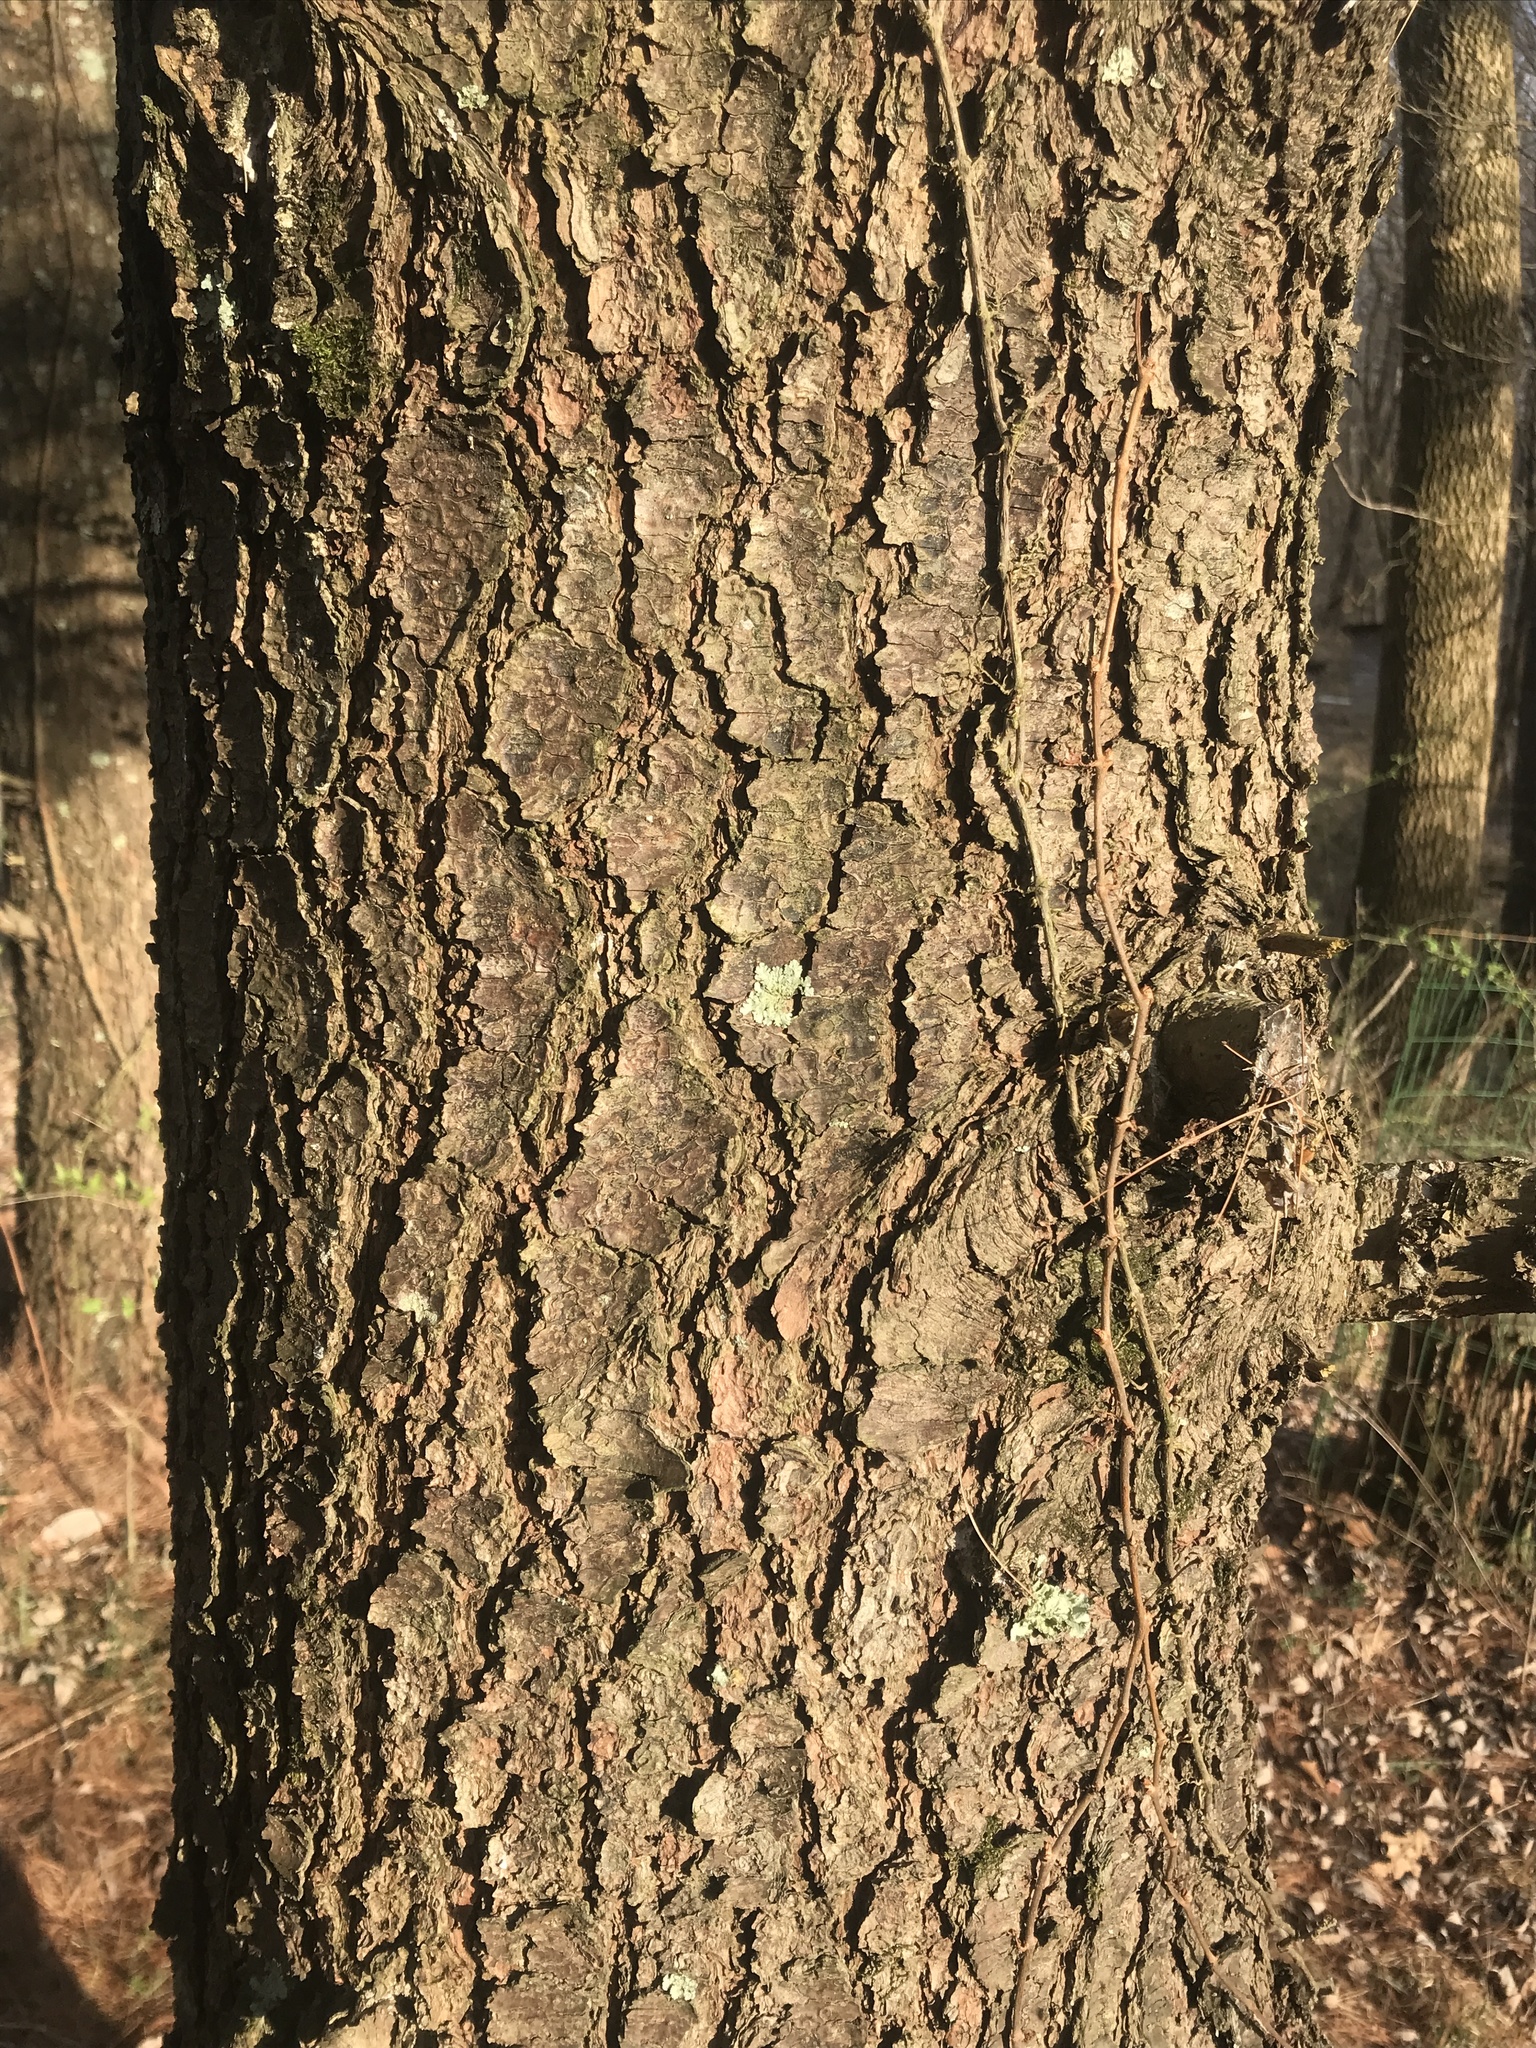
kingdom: Plantae
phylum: Tracheophyta
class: Pinopsida
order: Pinales
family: Pinaceae
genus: Pinus
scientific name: Pinus strobus
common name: Weymouth pine
